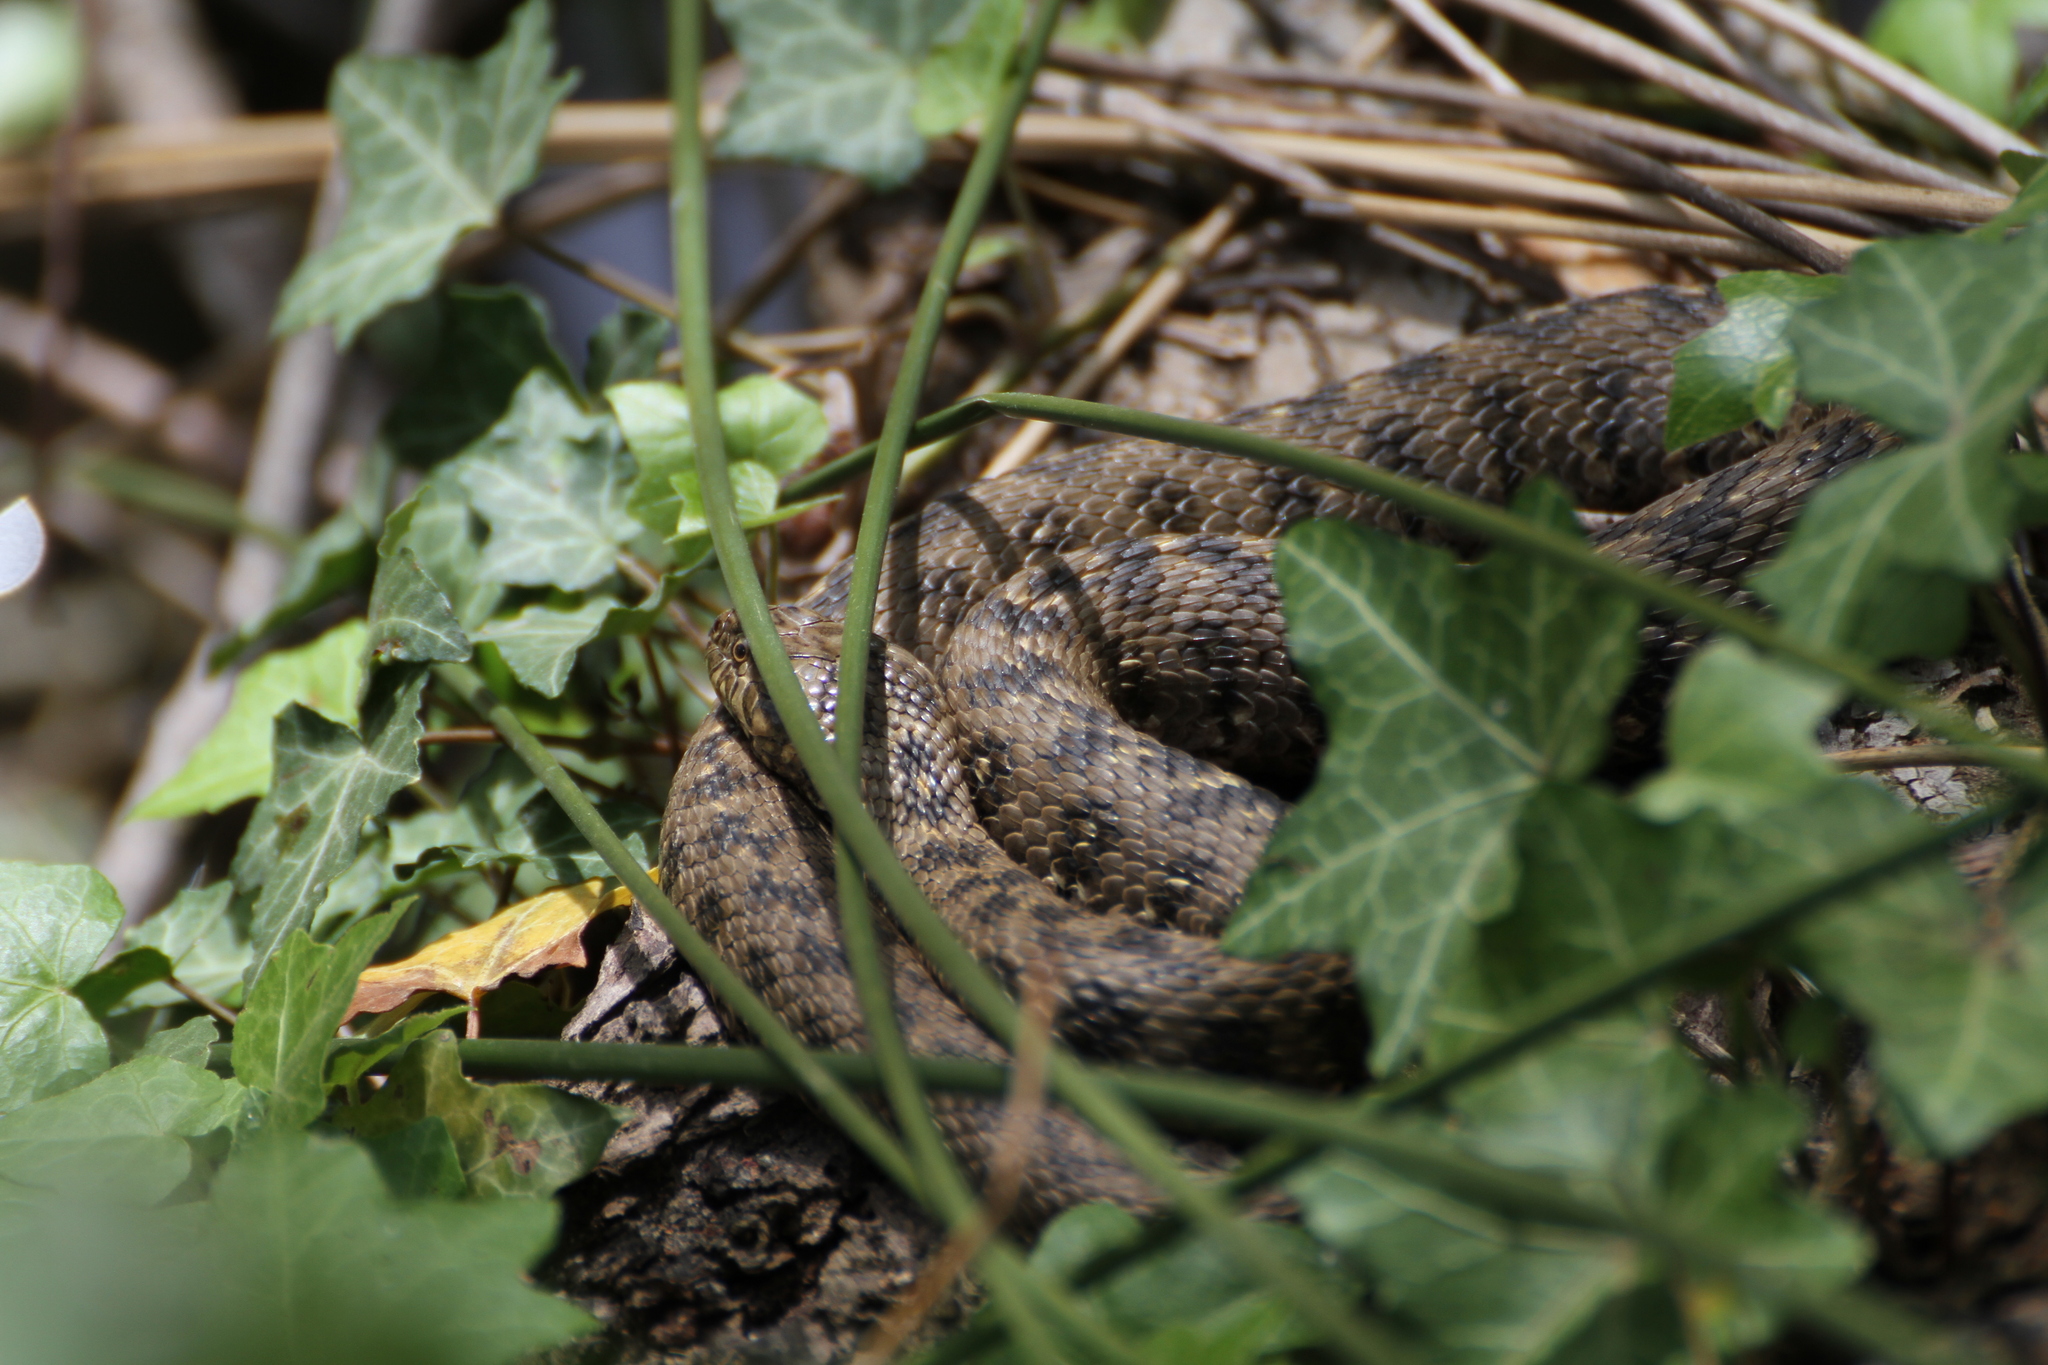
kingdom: Animalia
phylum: Chordata
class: Squamata
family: Colubridae
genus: Natrix
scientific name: Natrix maura
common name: Viperine water snake
